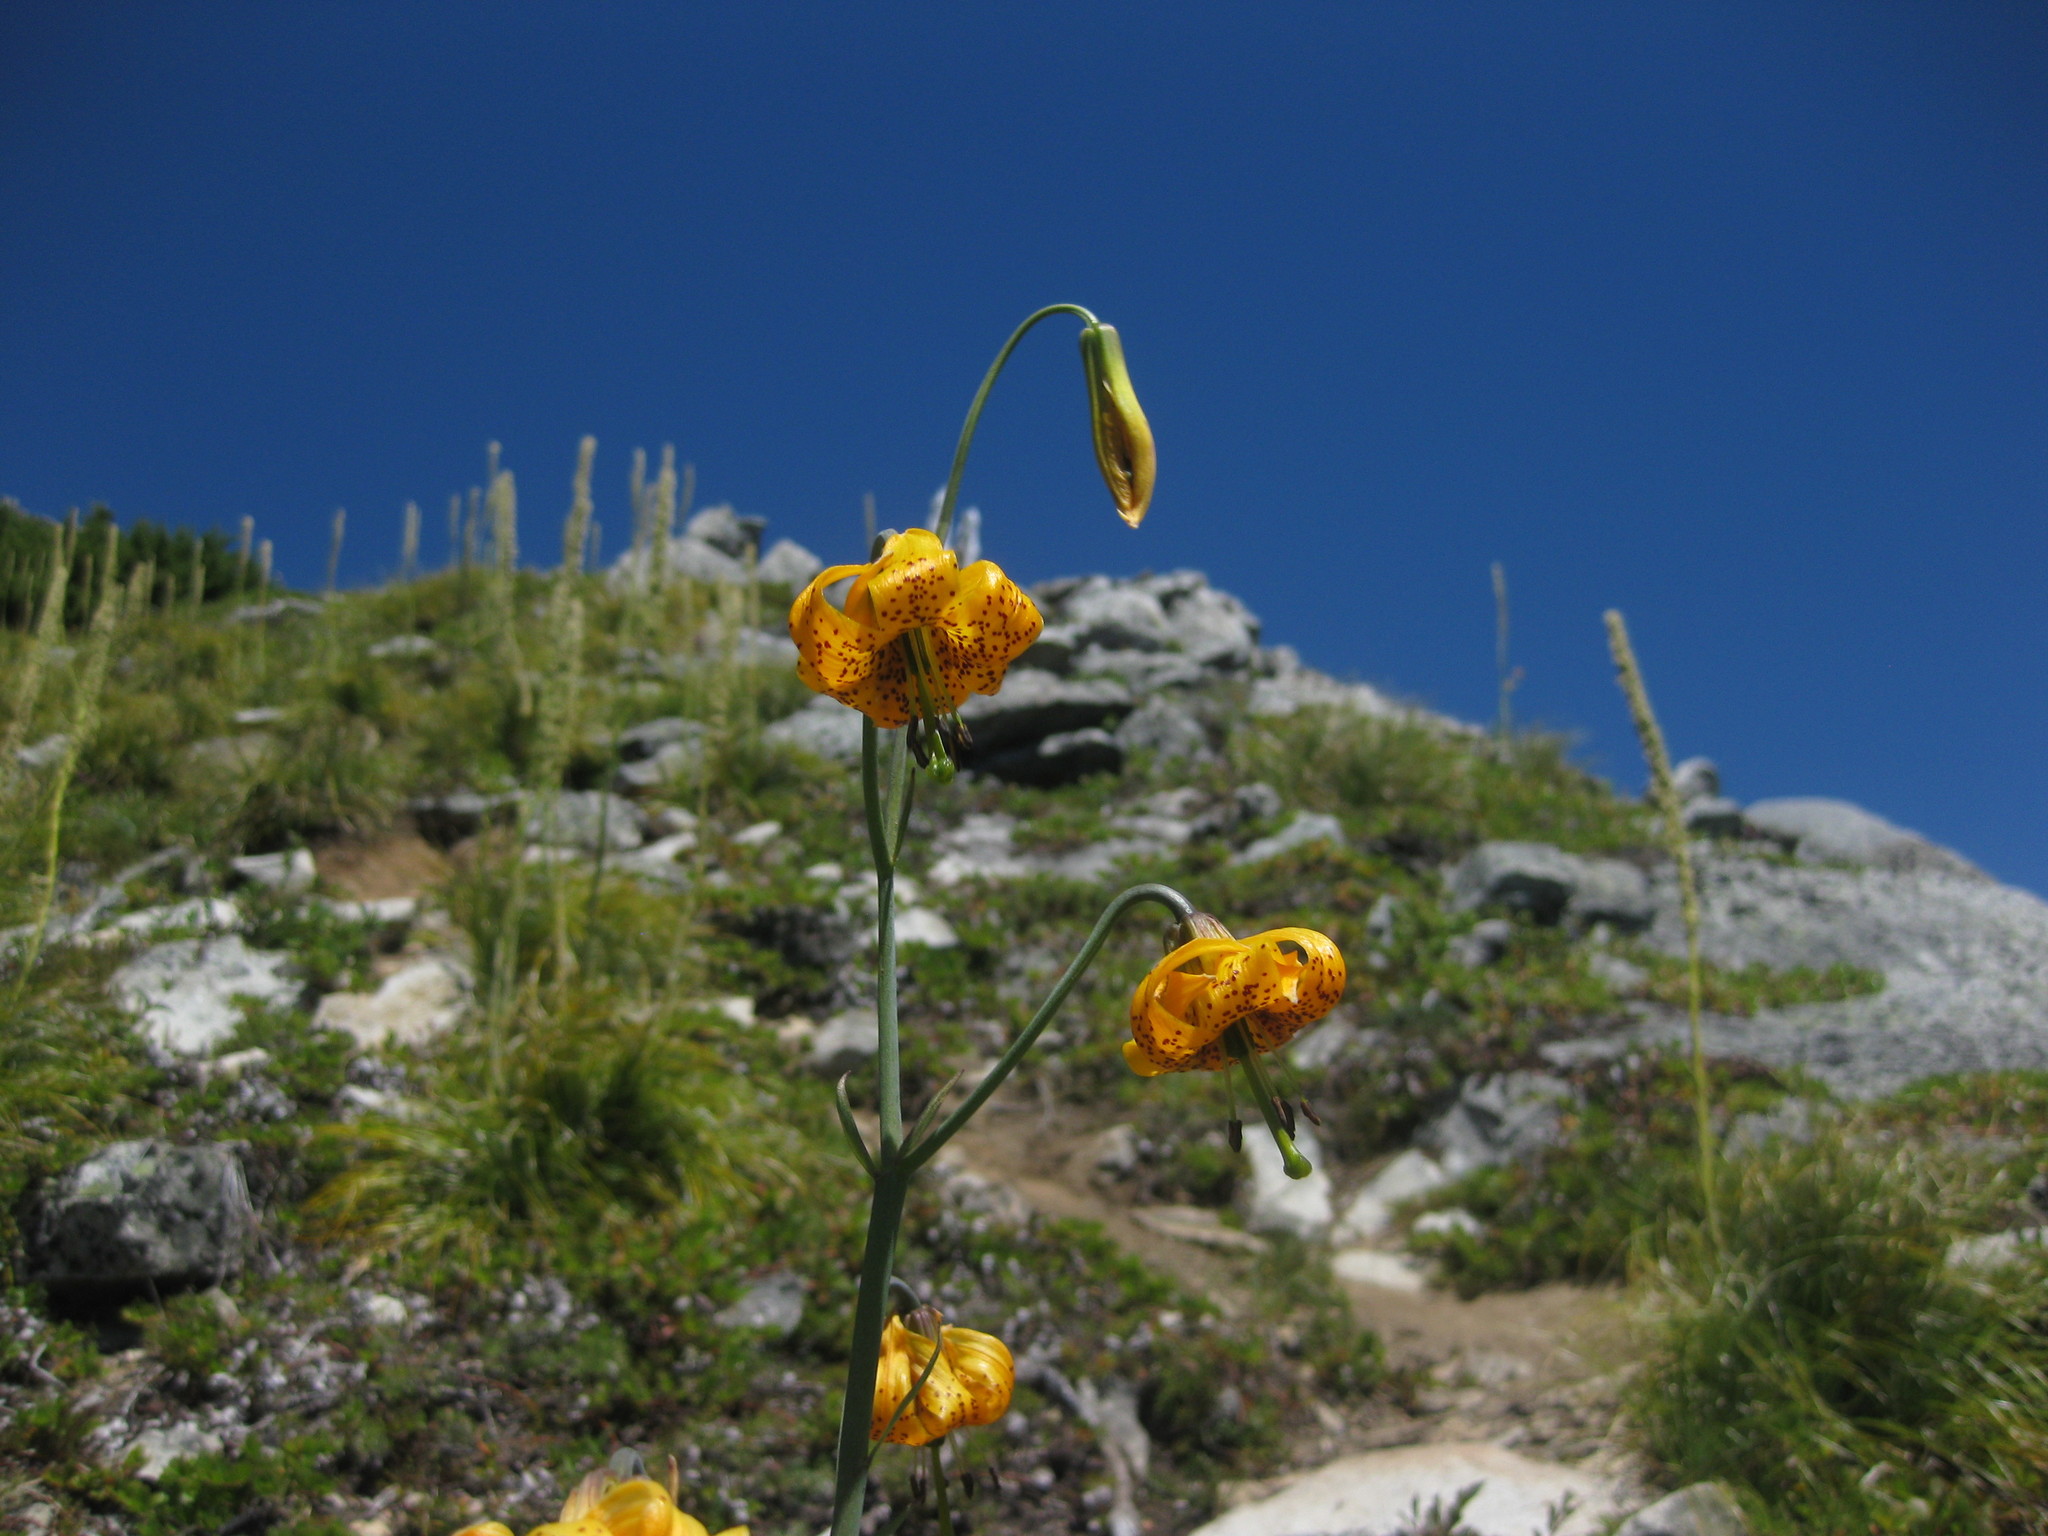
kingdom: Plantae
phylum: Tracheophyta
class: Liliopsida
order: Liliales
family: Liliaceae
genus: Lilium
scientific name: Lilium columbianum
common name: Columbia lily
